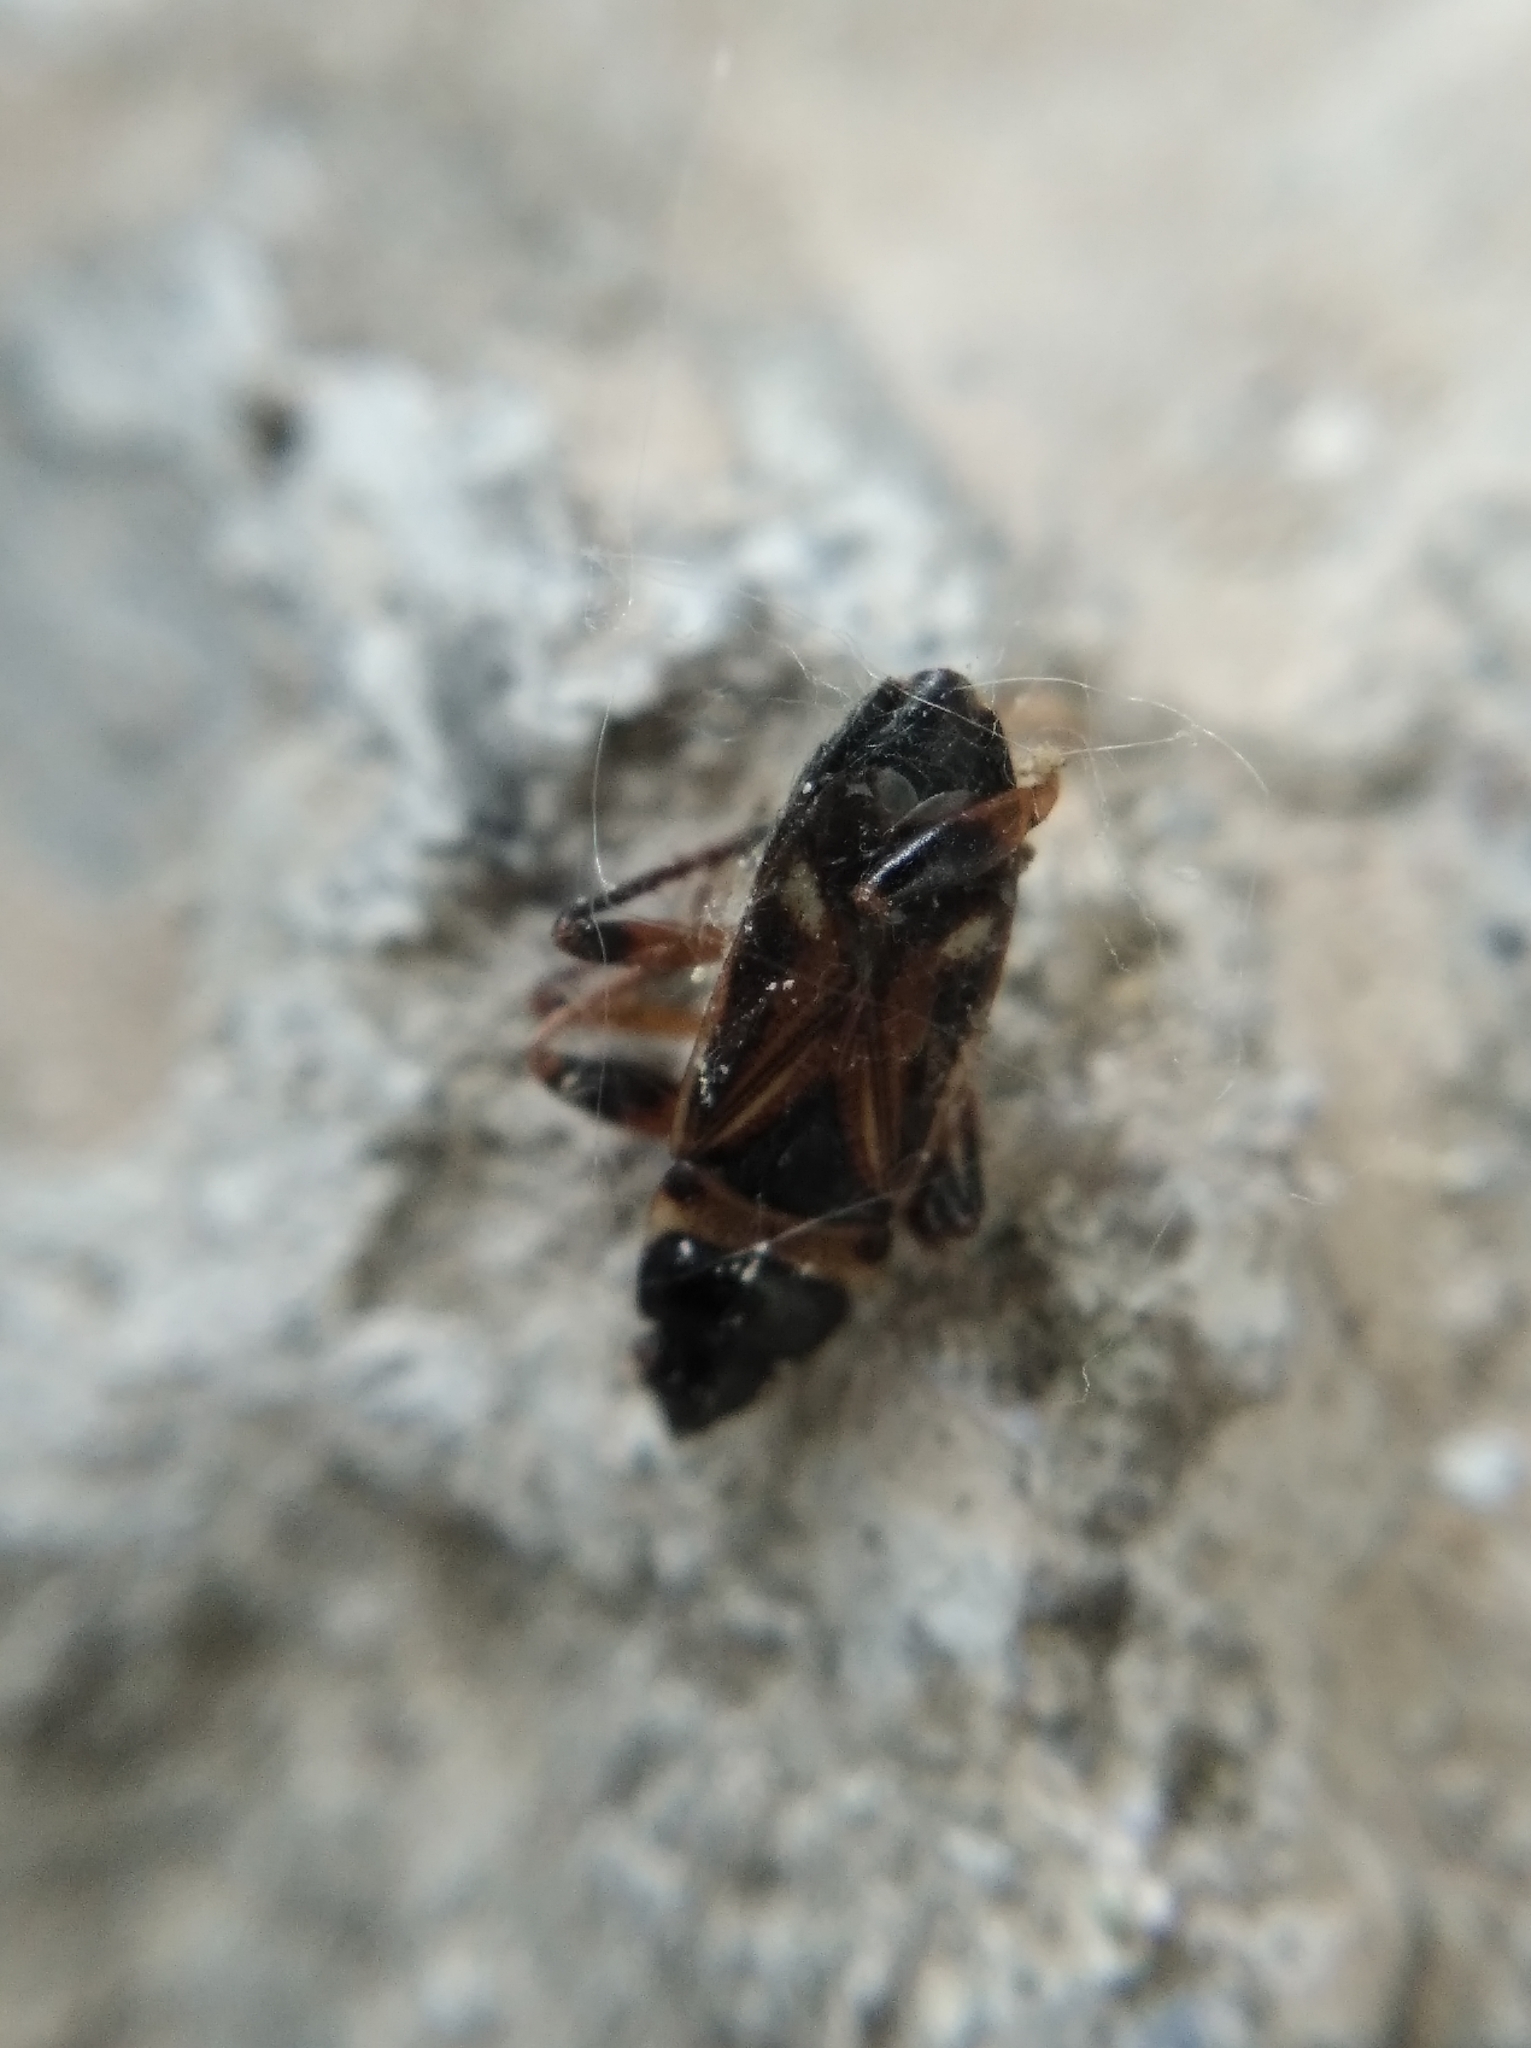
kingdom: Animalia
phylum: Arthropoda
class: Insecta
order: Hemiptera
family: Rhyparochromidae
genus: Raglius
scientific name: Raglius alboacuminatus
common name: Dirt-colored seed bug
